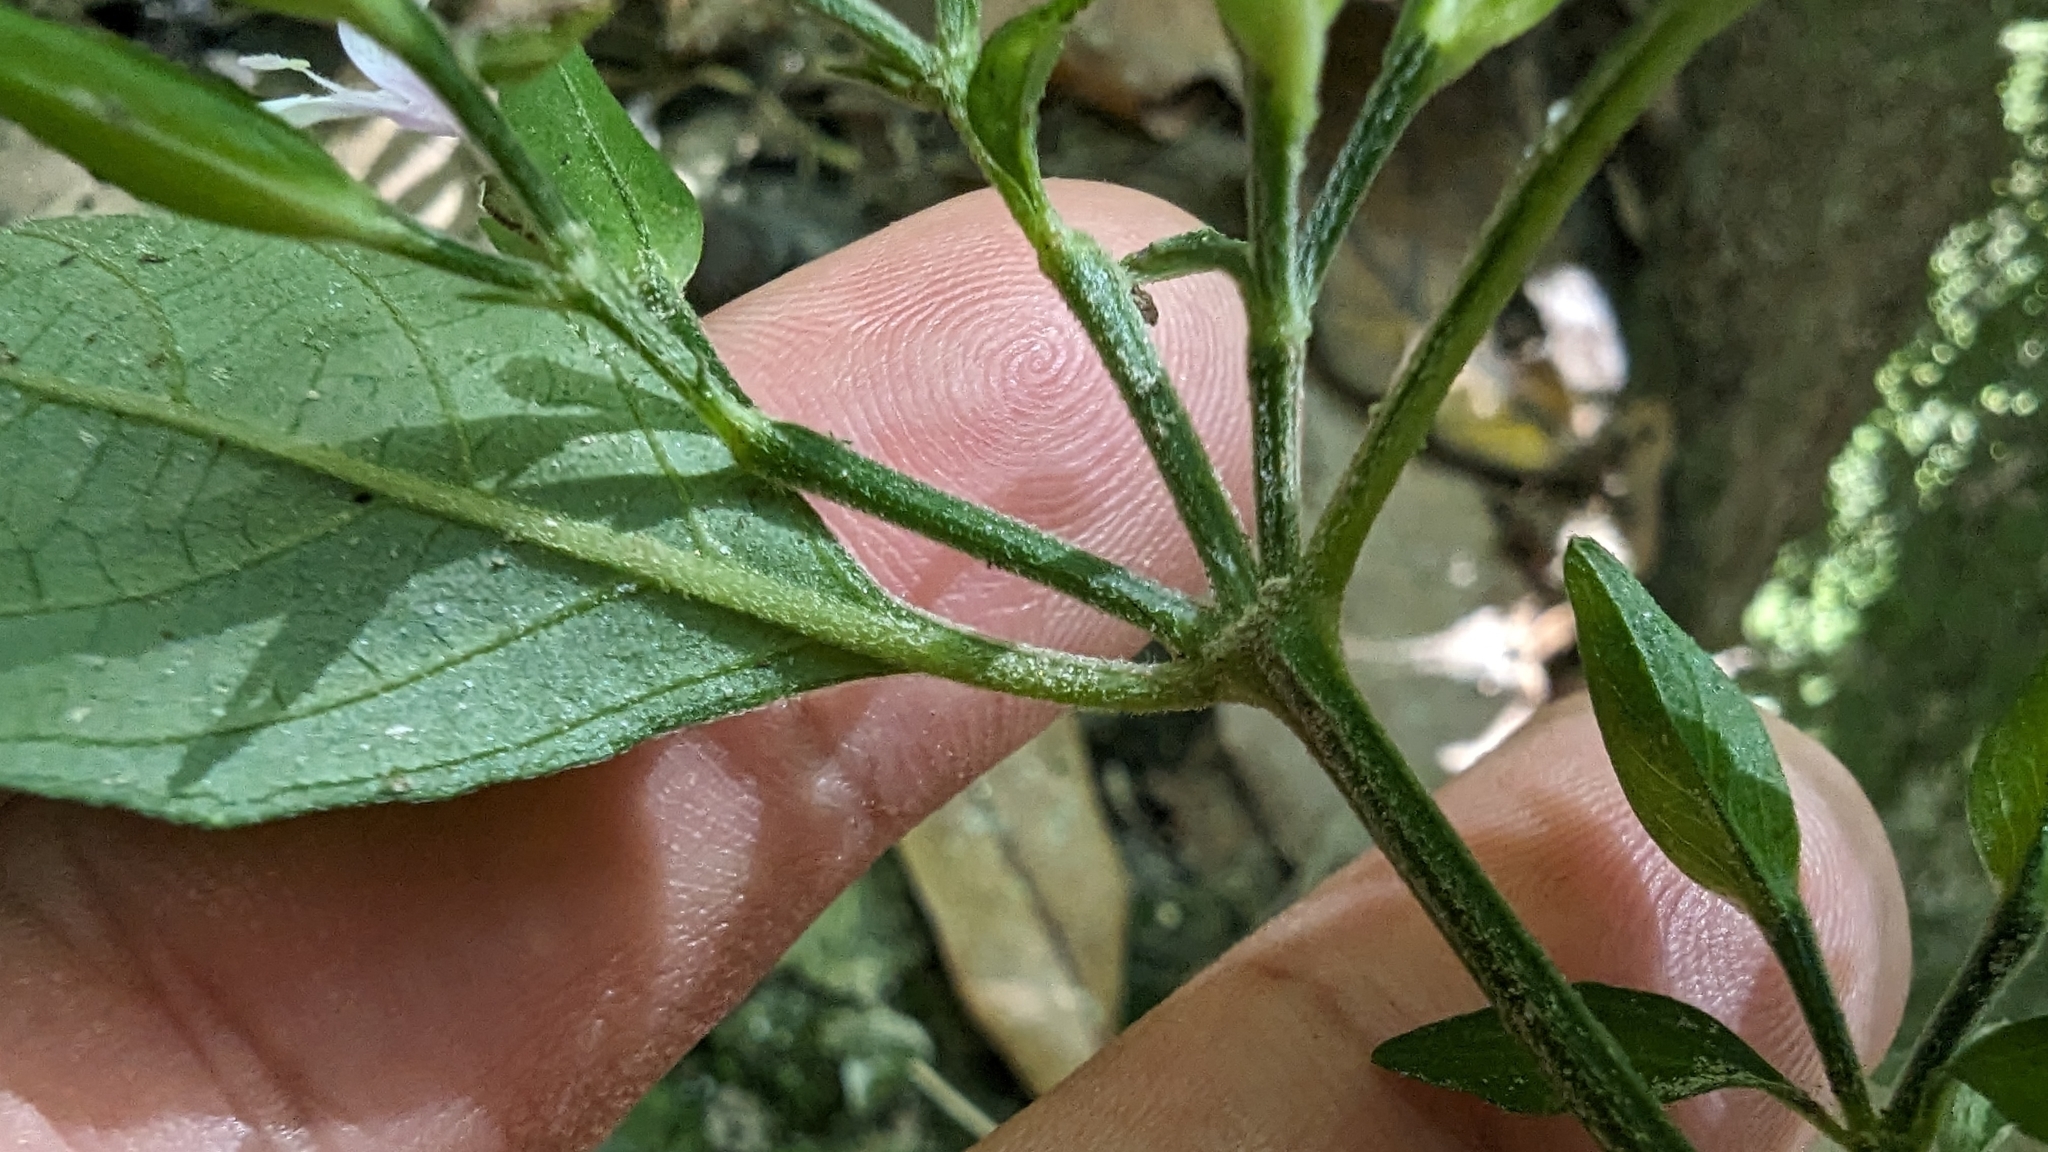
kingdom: Plantae
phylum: Tracheophyta
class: Magnoliopsida
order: Lamiales
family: Acanthaceae
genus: Dicliptera
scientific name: Dicliptera japonica
